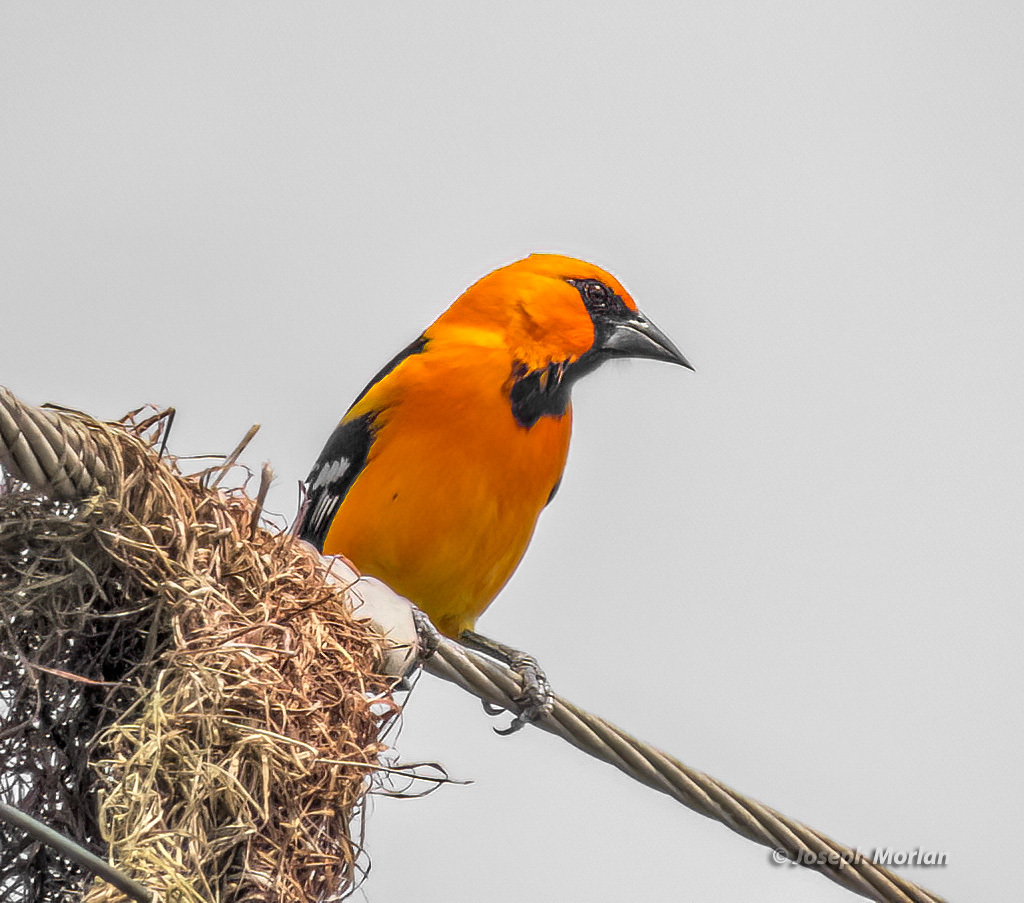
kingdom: Animalia
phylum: Chordata
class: Aves
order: Passeriformes
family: Icteridae
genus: Icterus
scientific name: Icterus gularis
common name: Altamira oriole
